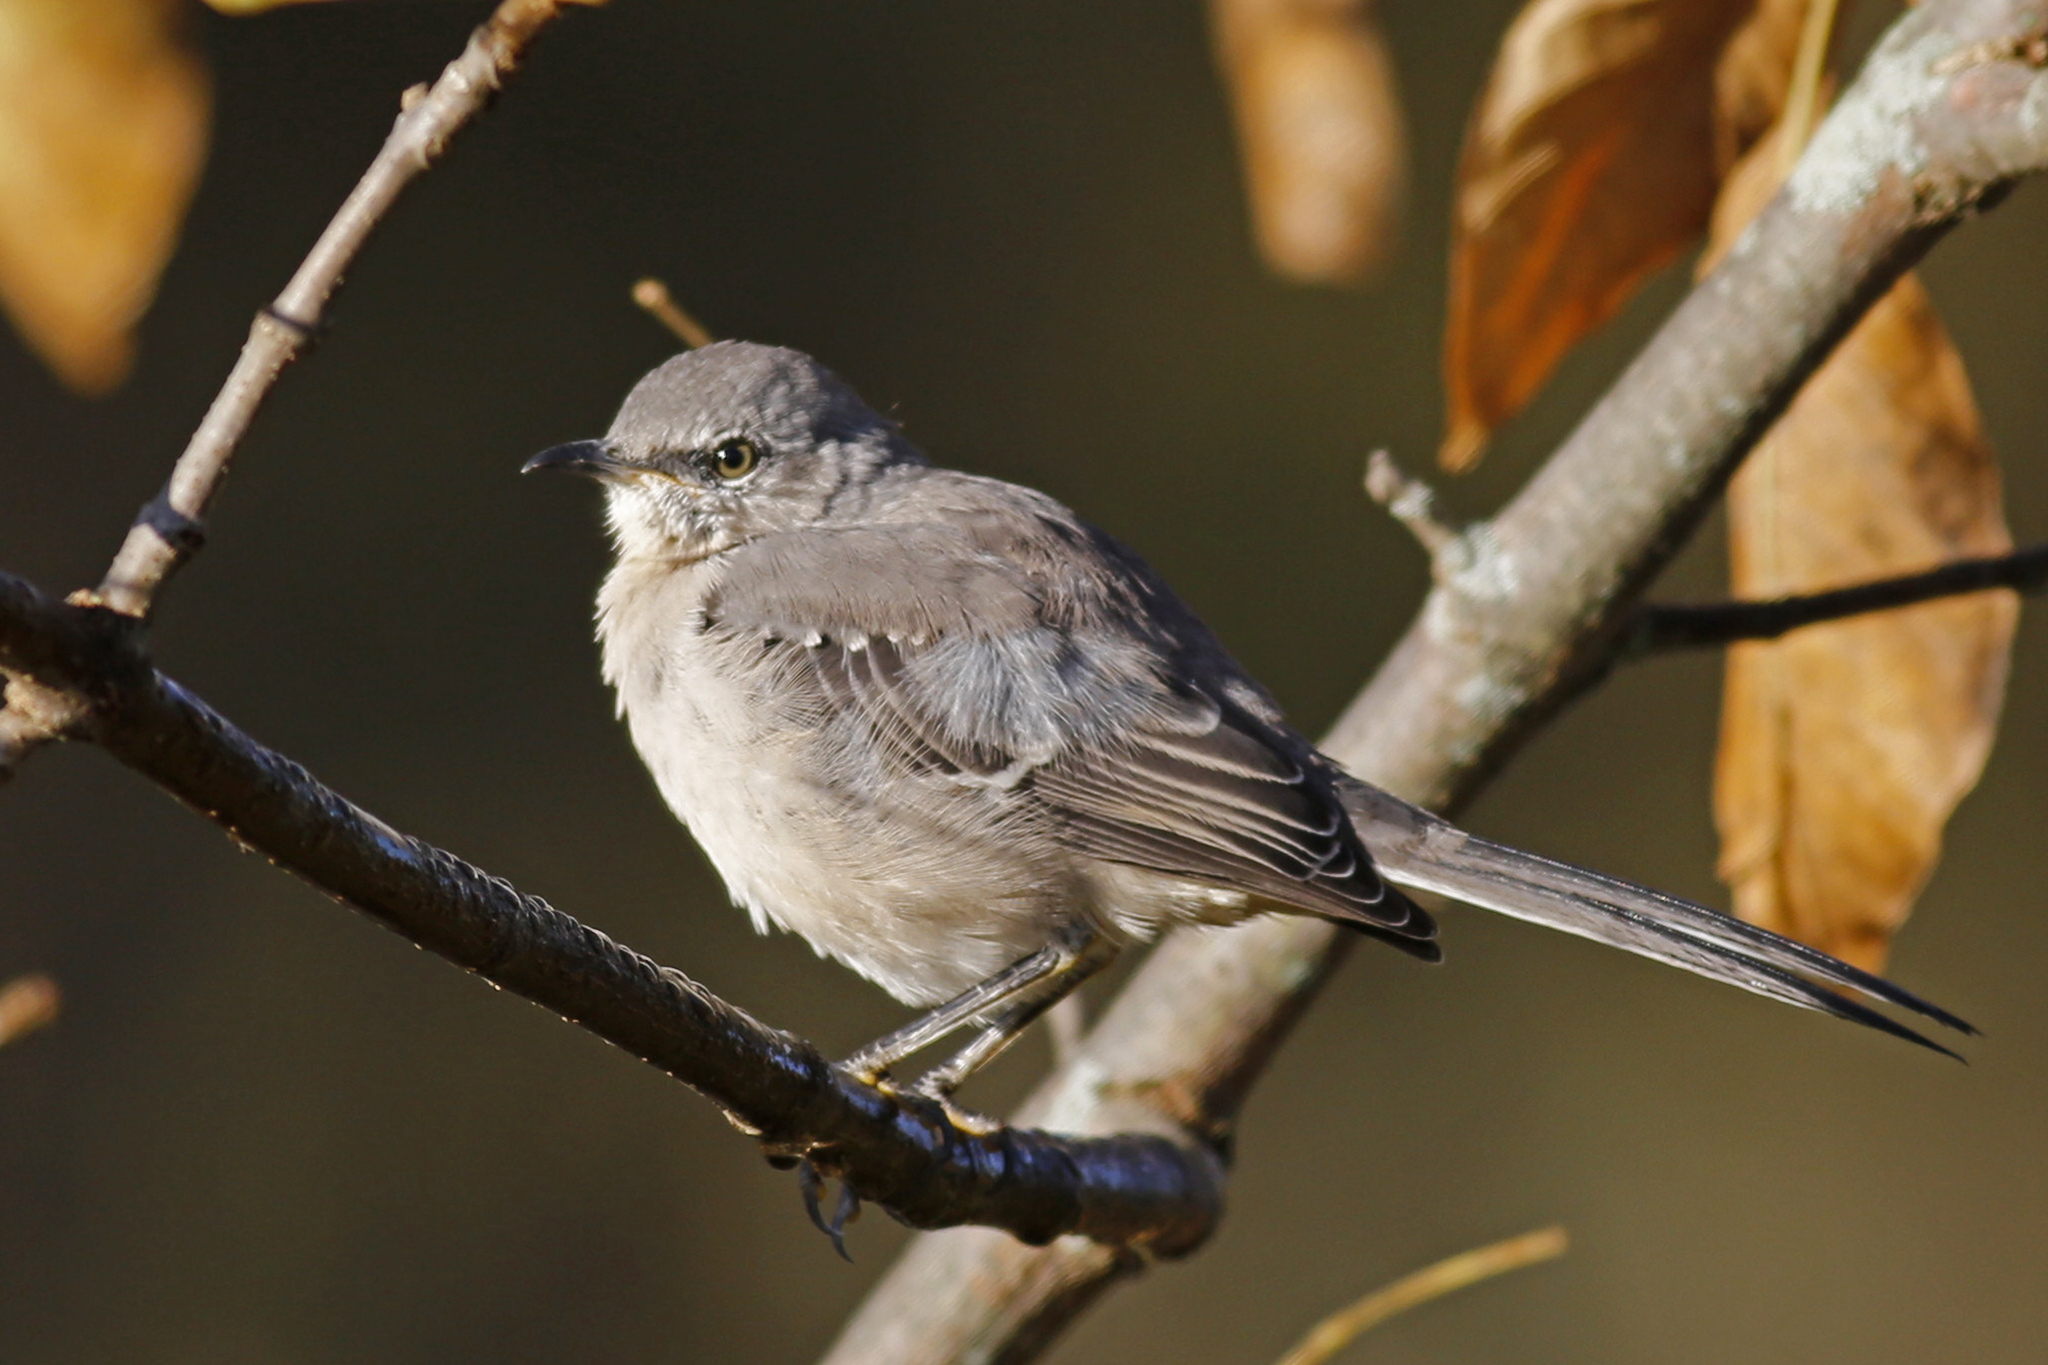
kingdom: Animalia
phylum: Chordata
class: Aves
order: Passeriformes
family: Mimidae
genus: Mimus
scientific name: Mimus polyglottos
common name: Northern mockingbird
